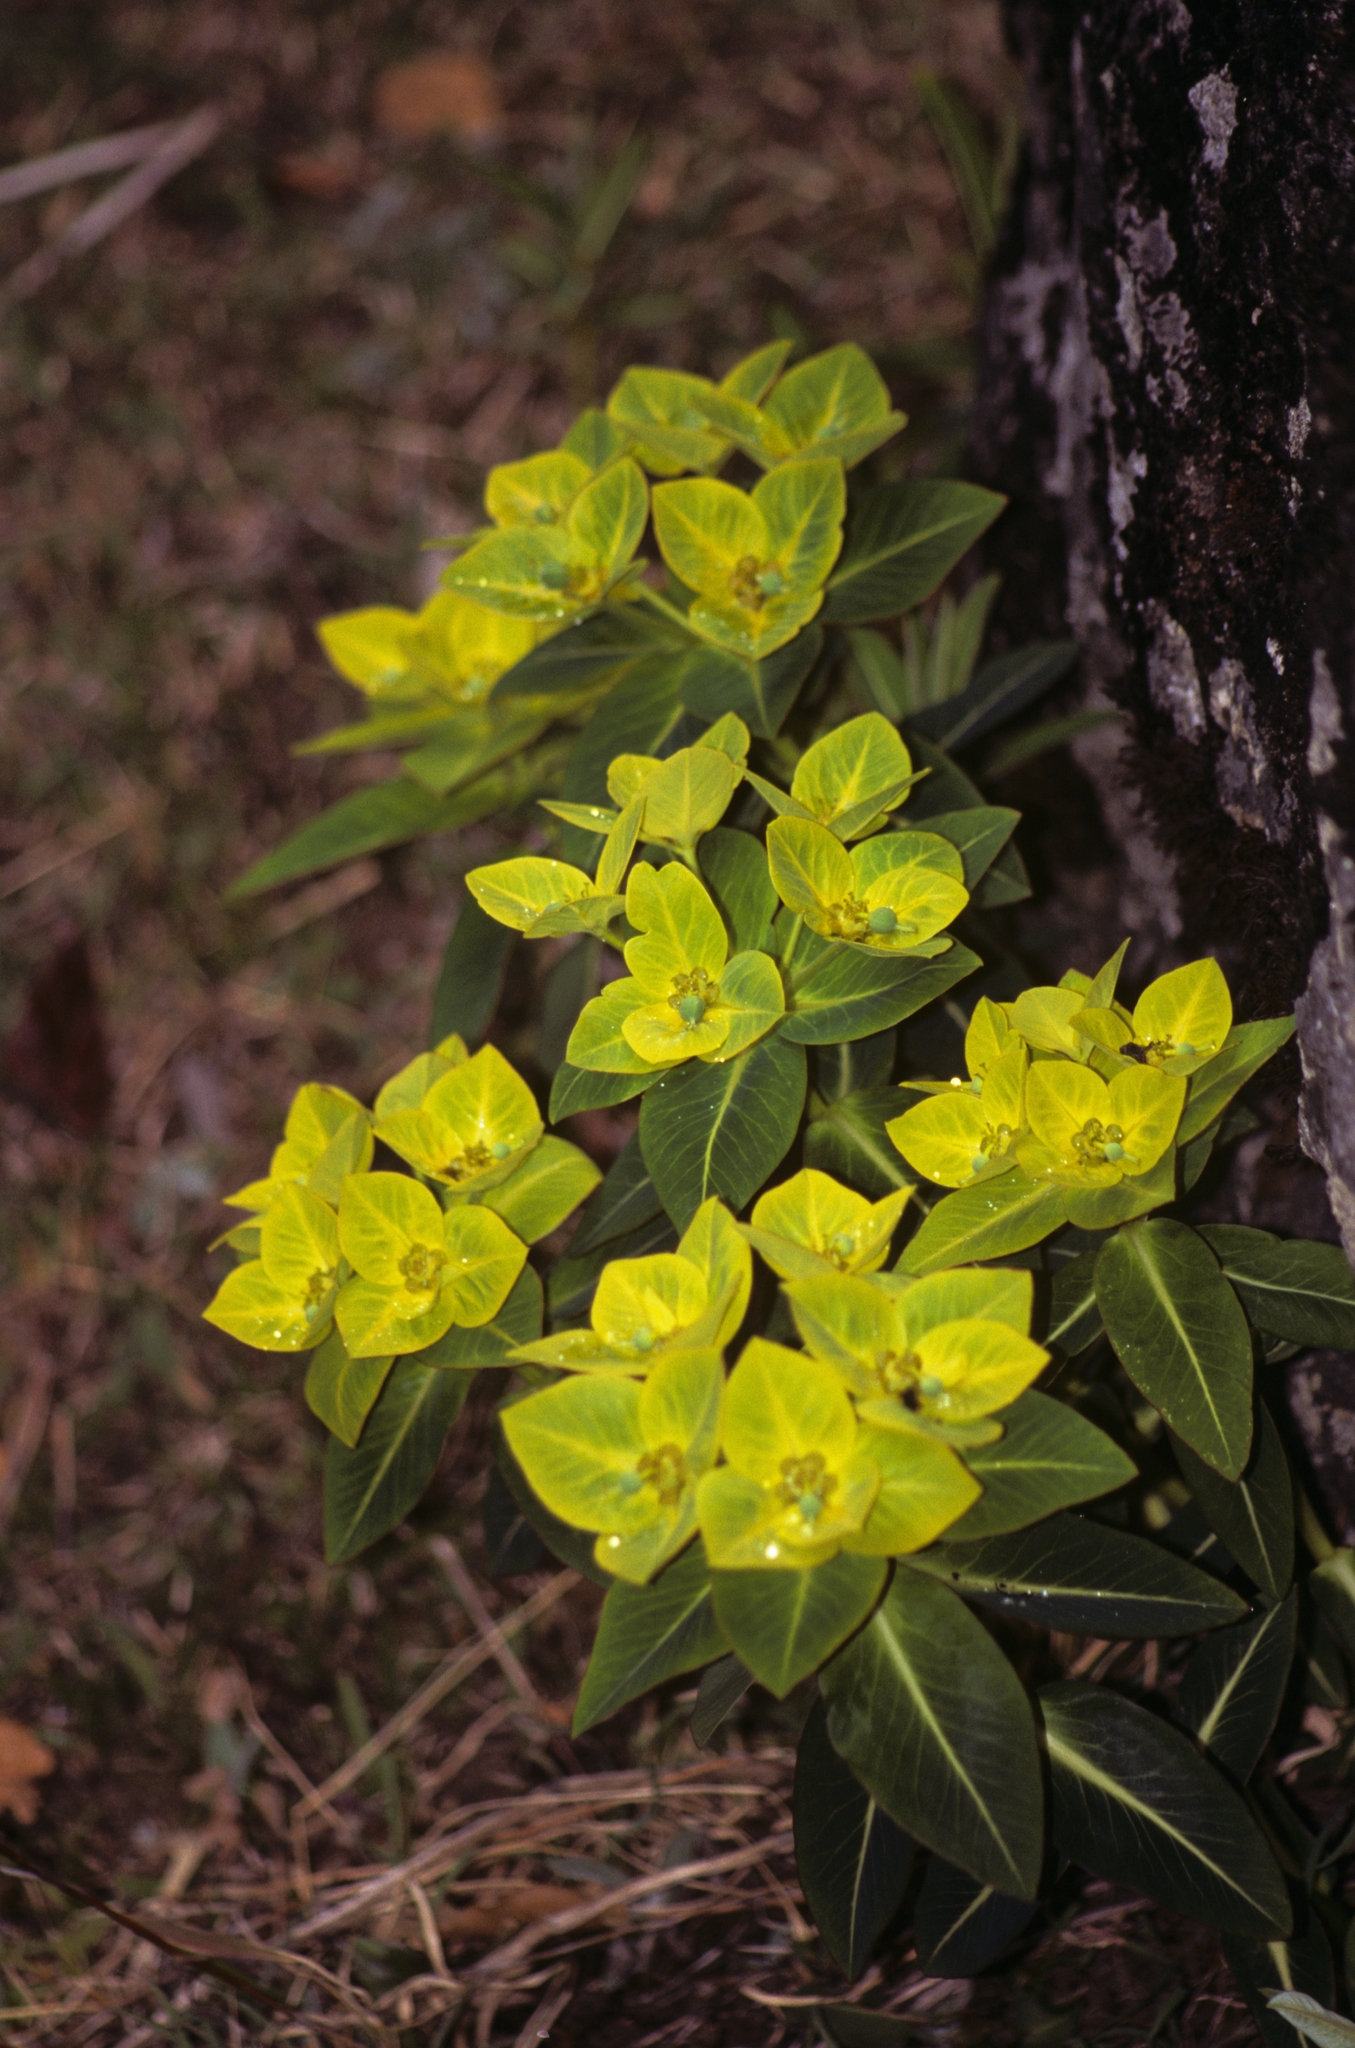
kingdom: Plantae
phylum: Tracheophyta
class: Magnoliopsida
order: Malpighiales
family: Euphorbiaceae
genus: Euphorbia
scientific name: Euphorbia wallichii
